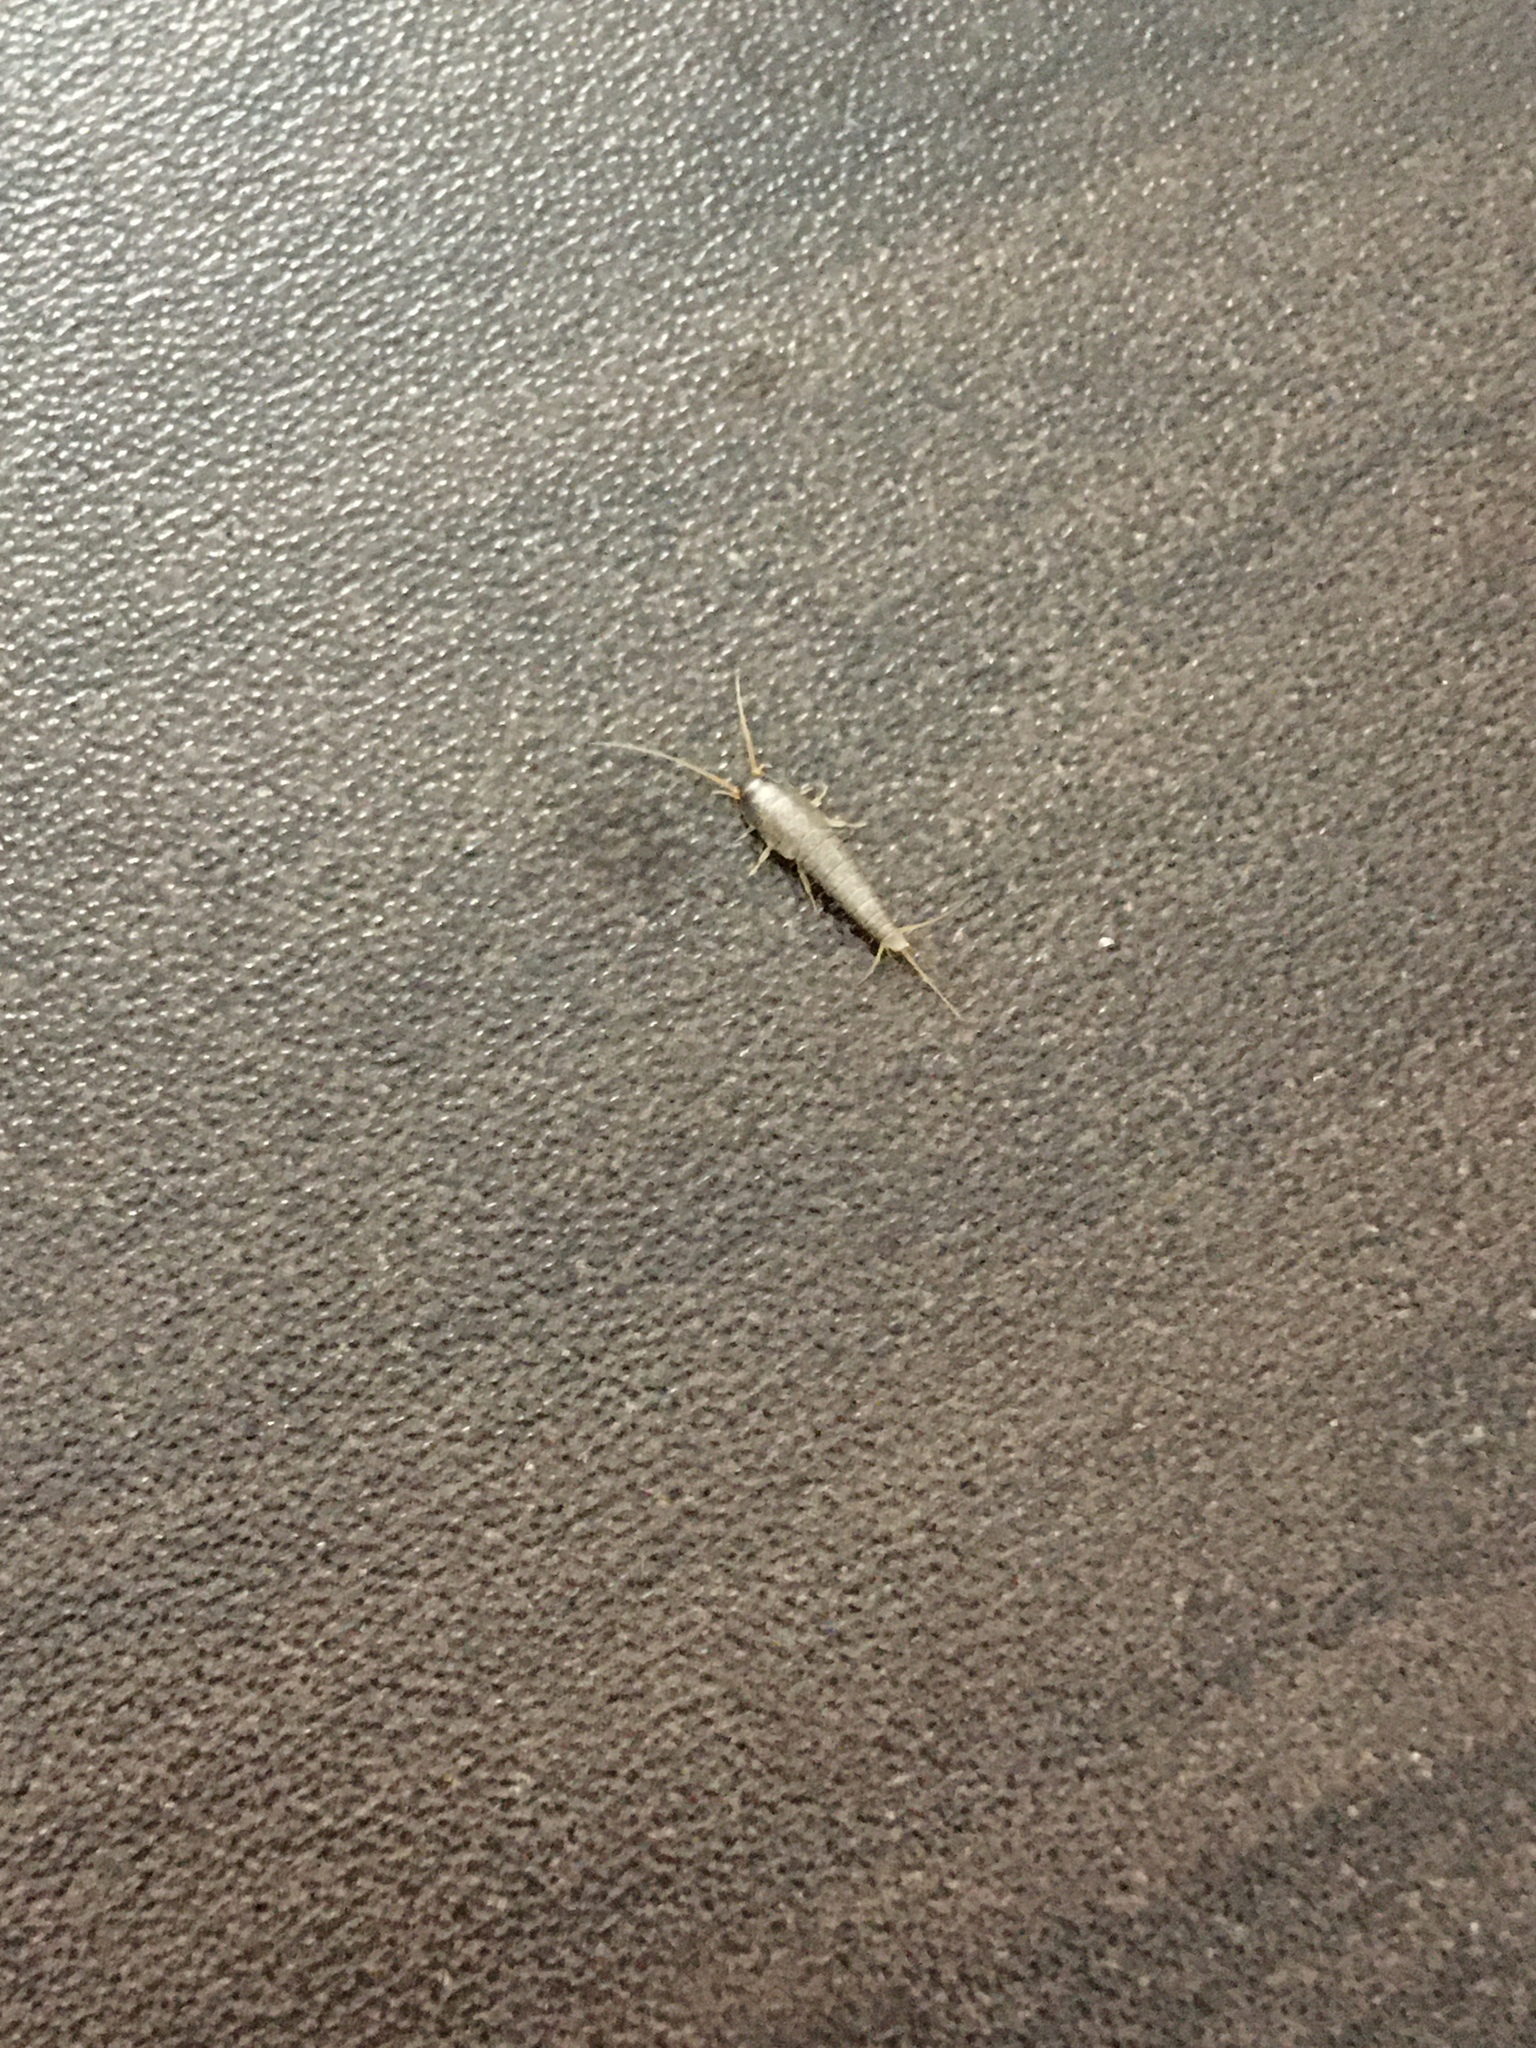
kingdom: Animalia
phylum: Arthropoda
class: Insecta
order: Zygentoma
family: Lepismatidae
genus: Lepisma
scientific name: Lepisma saccharinum
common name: Silverfish
